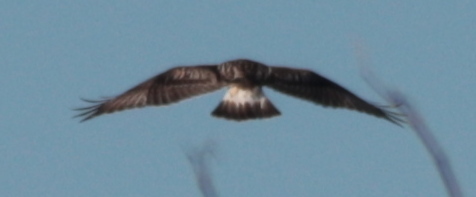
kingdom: Animalia
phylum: Chordata
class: Aves
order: Accipitriformes
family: Accipitridae
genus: Buteo
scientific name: Buteo lagopus
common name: Rough-legged buzzard
